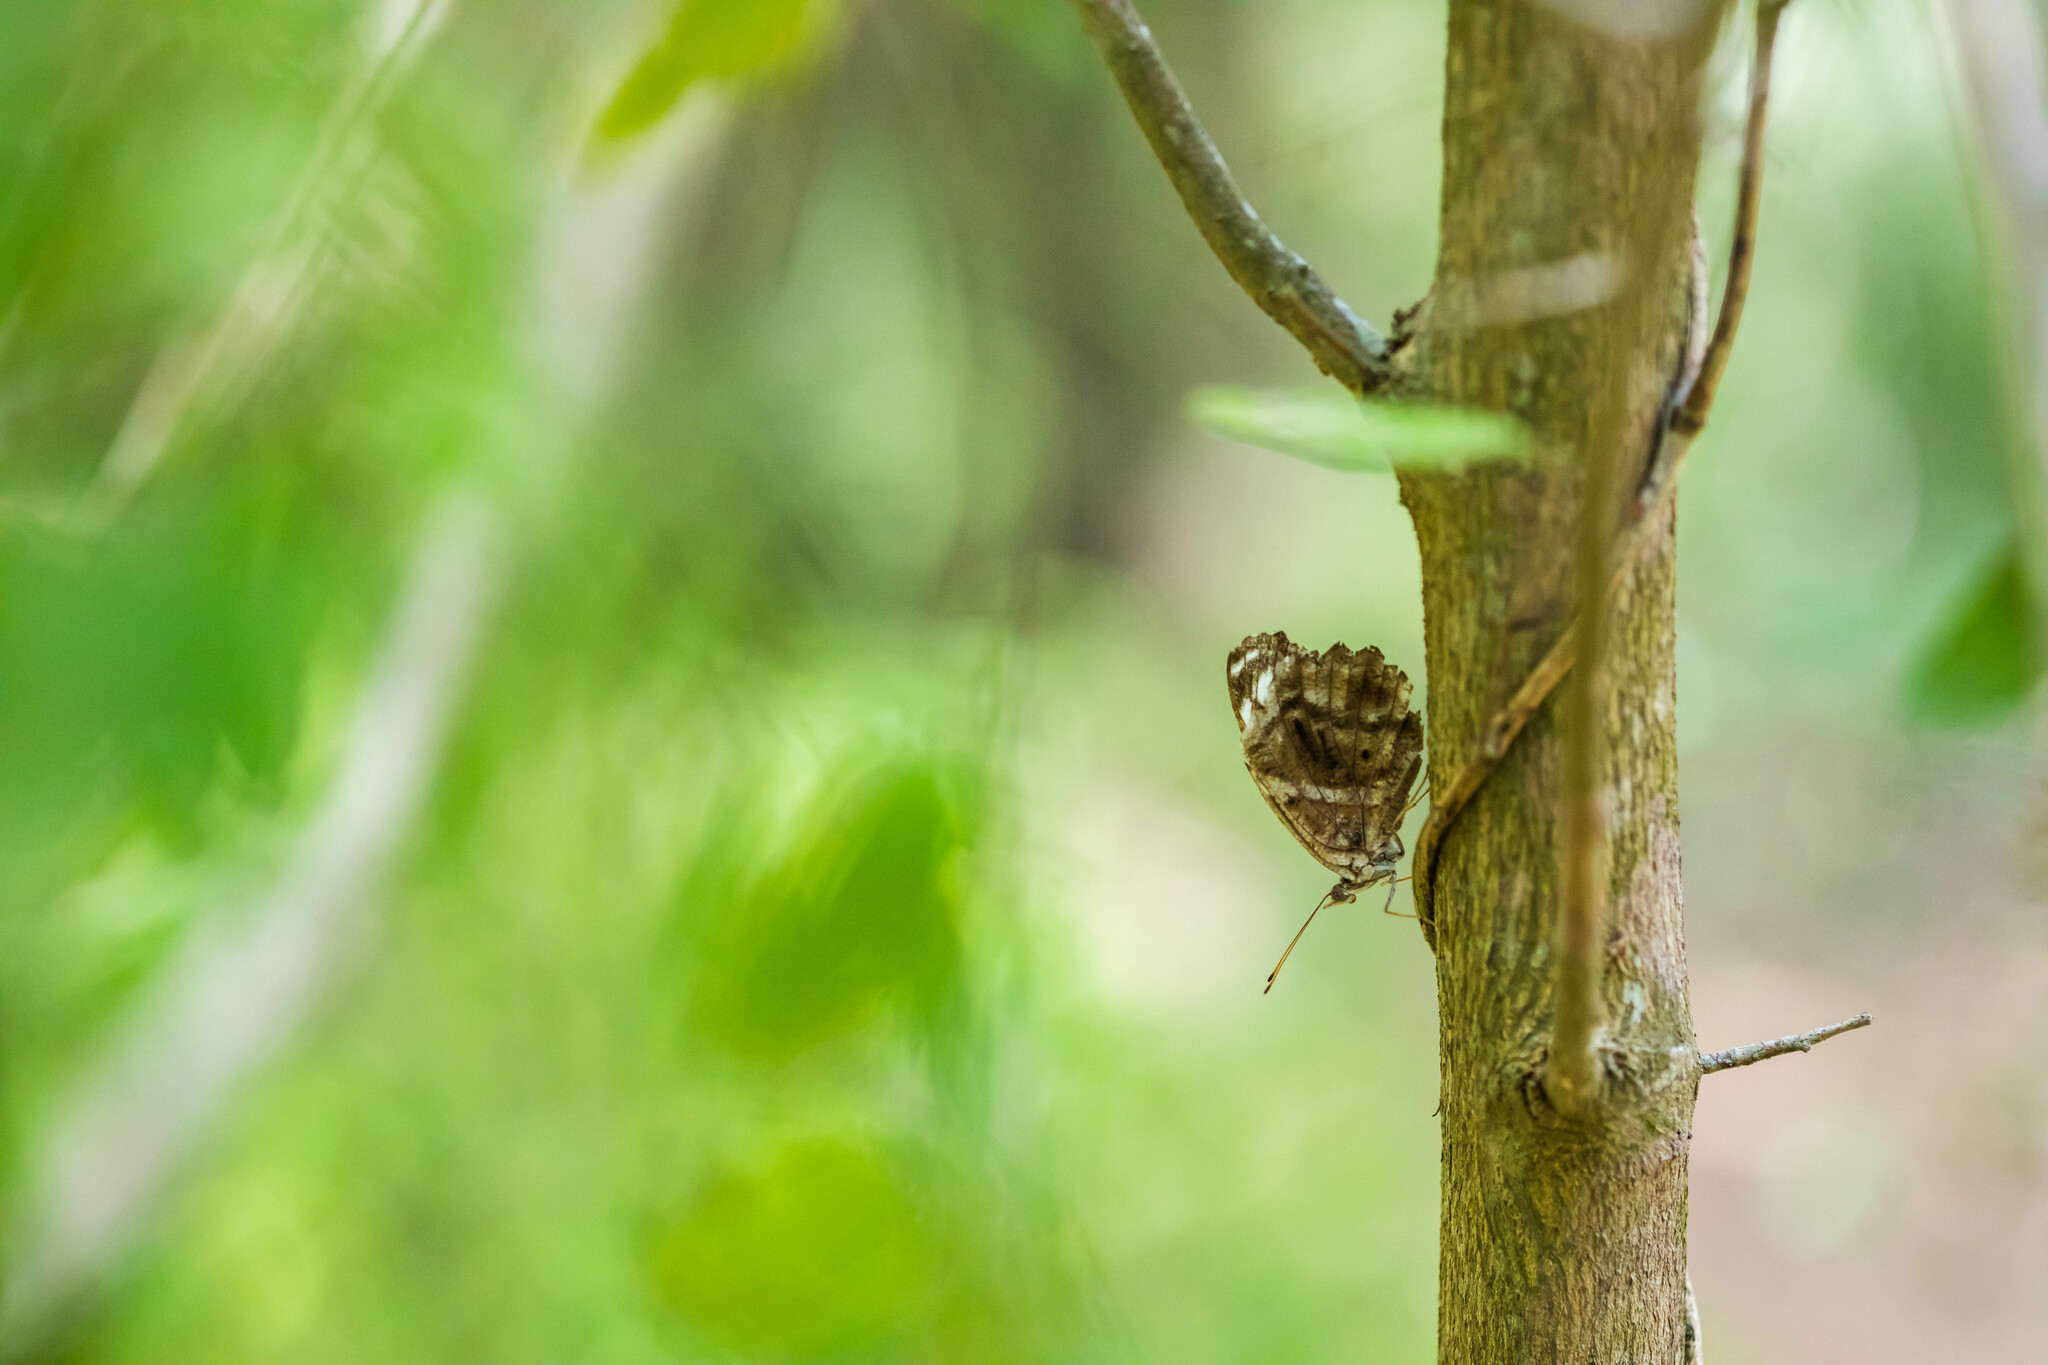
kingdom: Animalia
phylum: Arthropoda
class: Insecta
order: Lepidoptera
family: Nymphalidae
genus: Myscelia
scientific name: Myscelia ethusa
